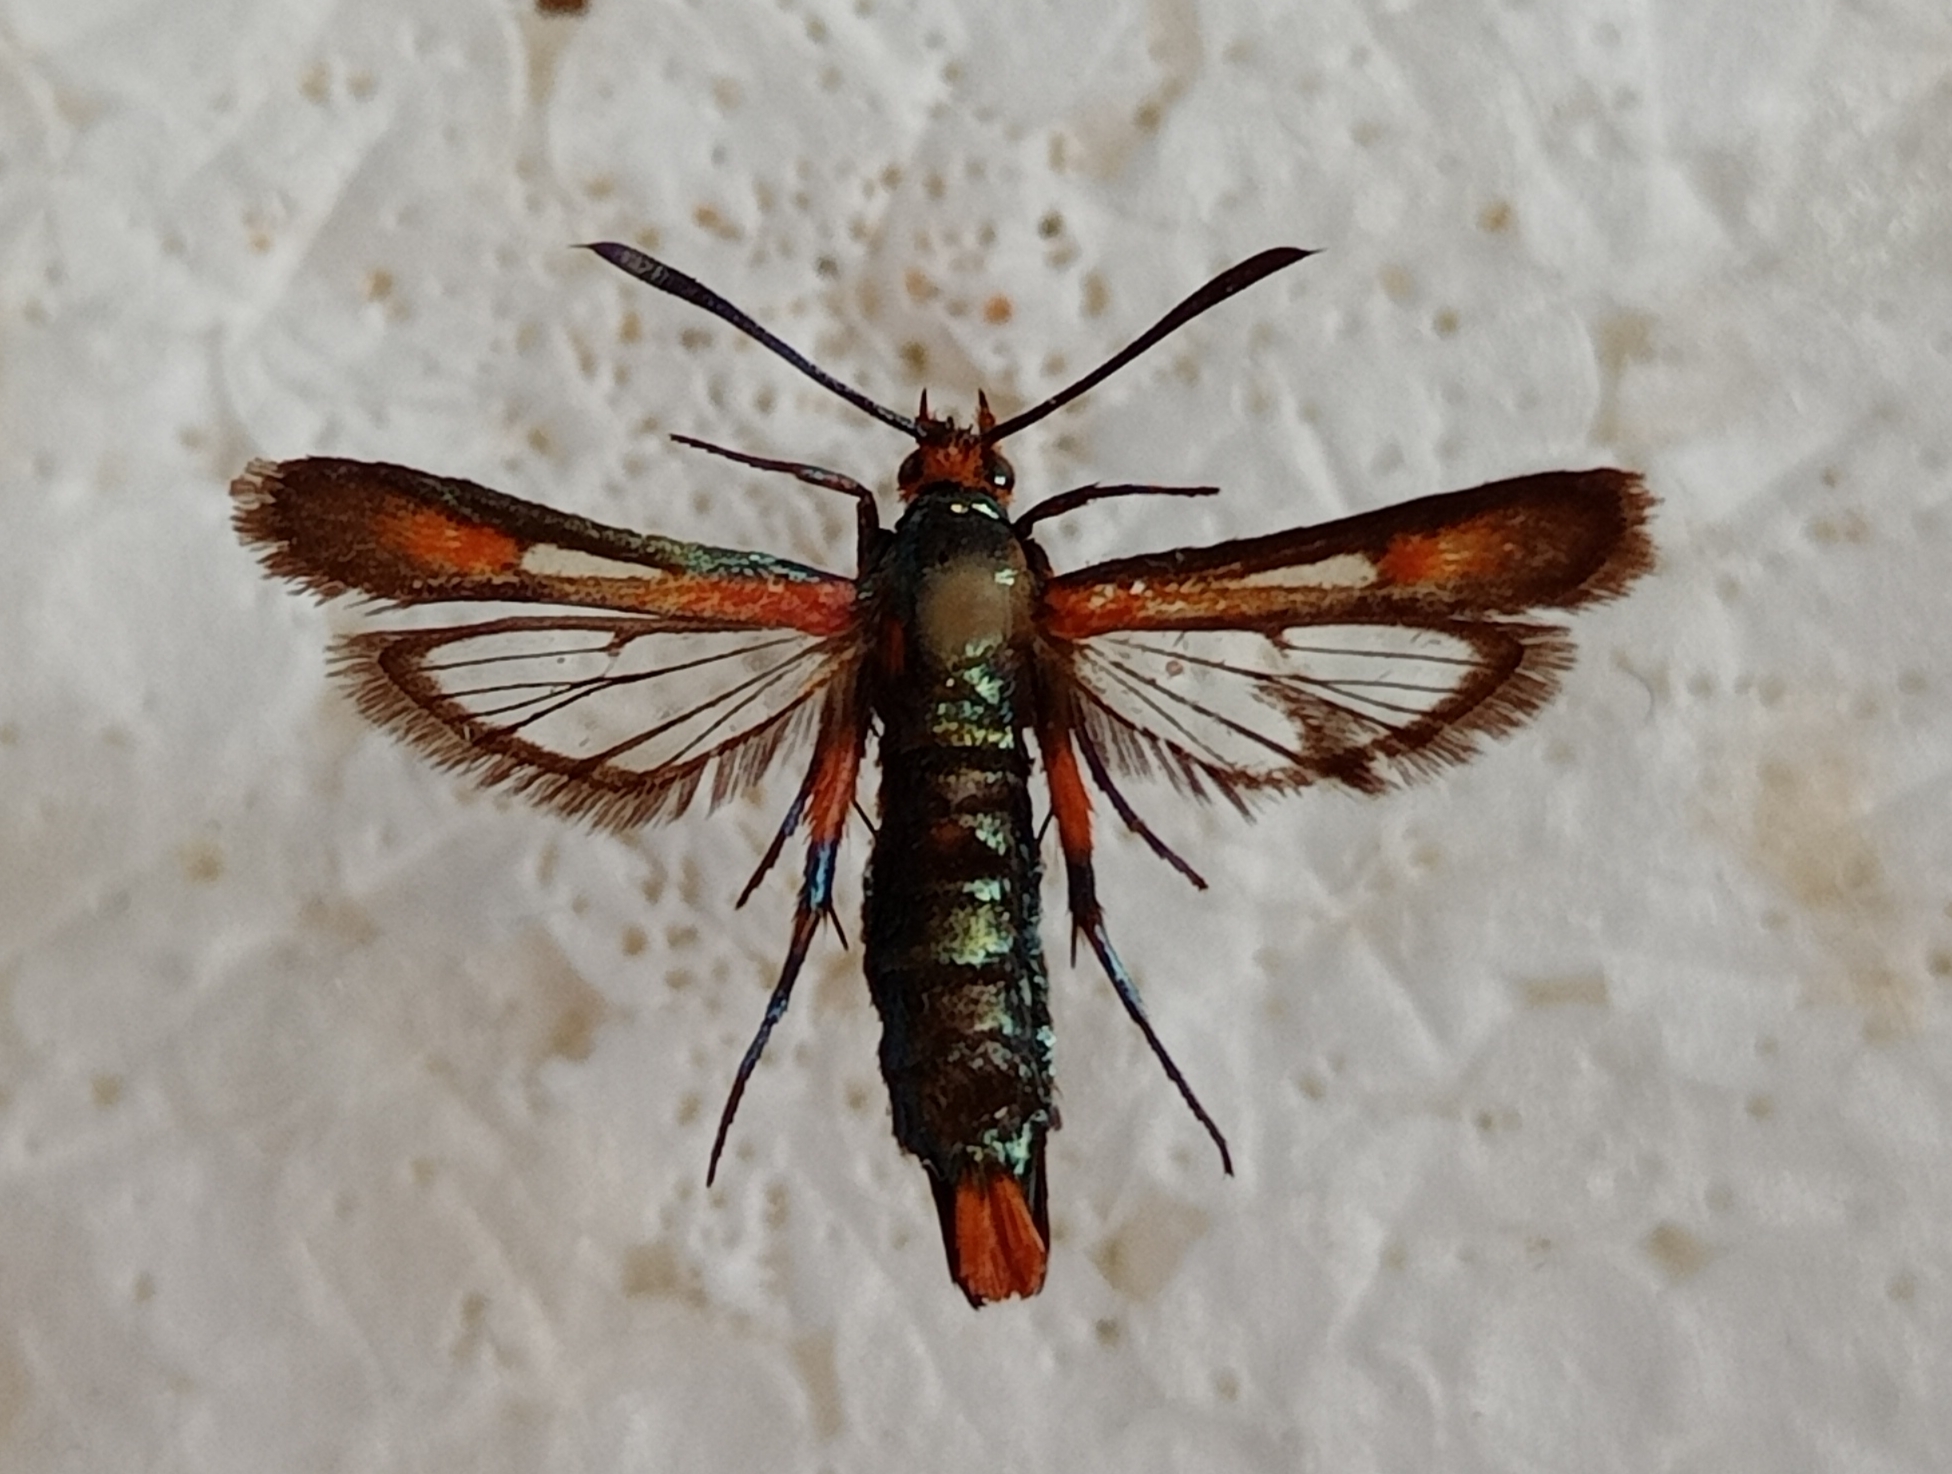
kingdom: Animalia
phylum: Arthropoda
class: Insecta
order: Lepidoptera
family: Sesiidae
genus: Chamaesphecia
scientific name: Chamaesphecia elampiformis
